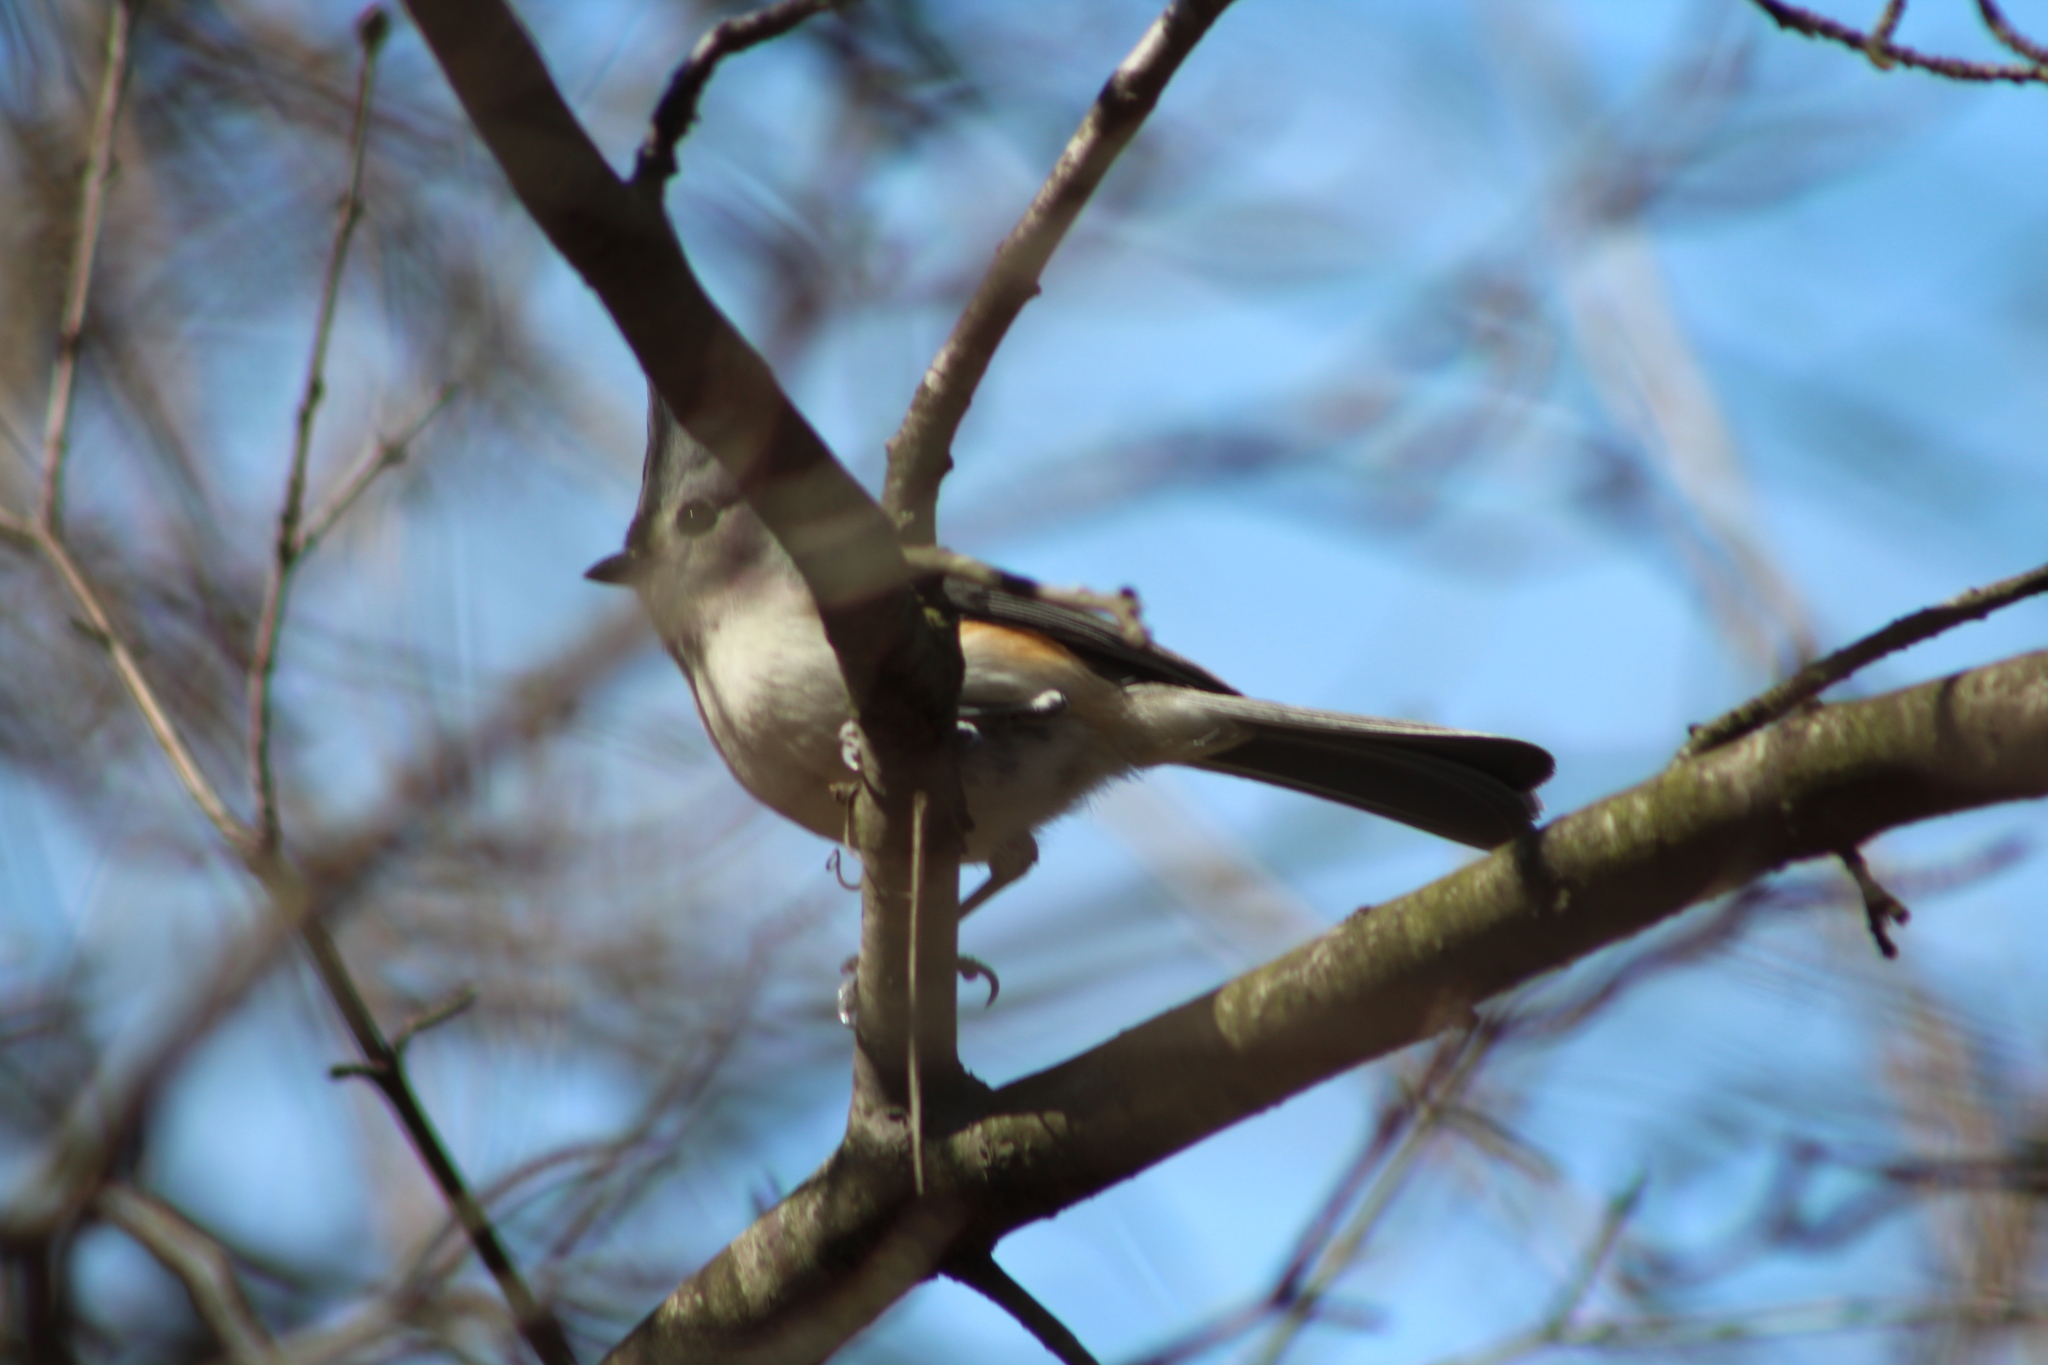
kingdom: Animalia
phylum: Chordata
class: Aves
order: Passeriformes
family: Paridae
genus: Baeolophus
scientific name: Baeolophus bicolor
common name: Tufted titmouse
